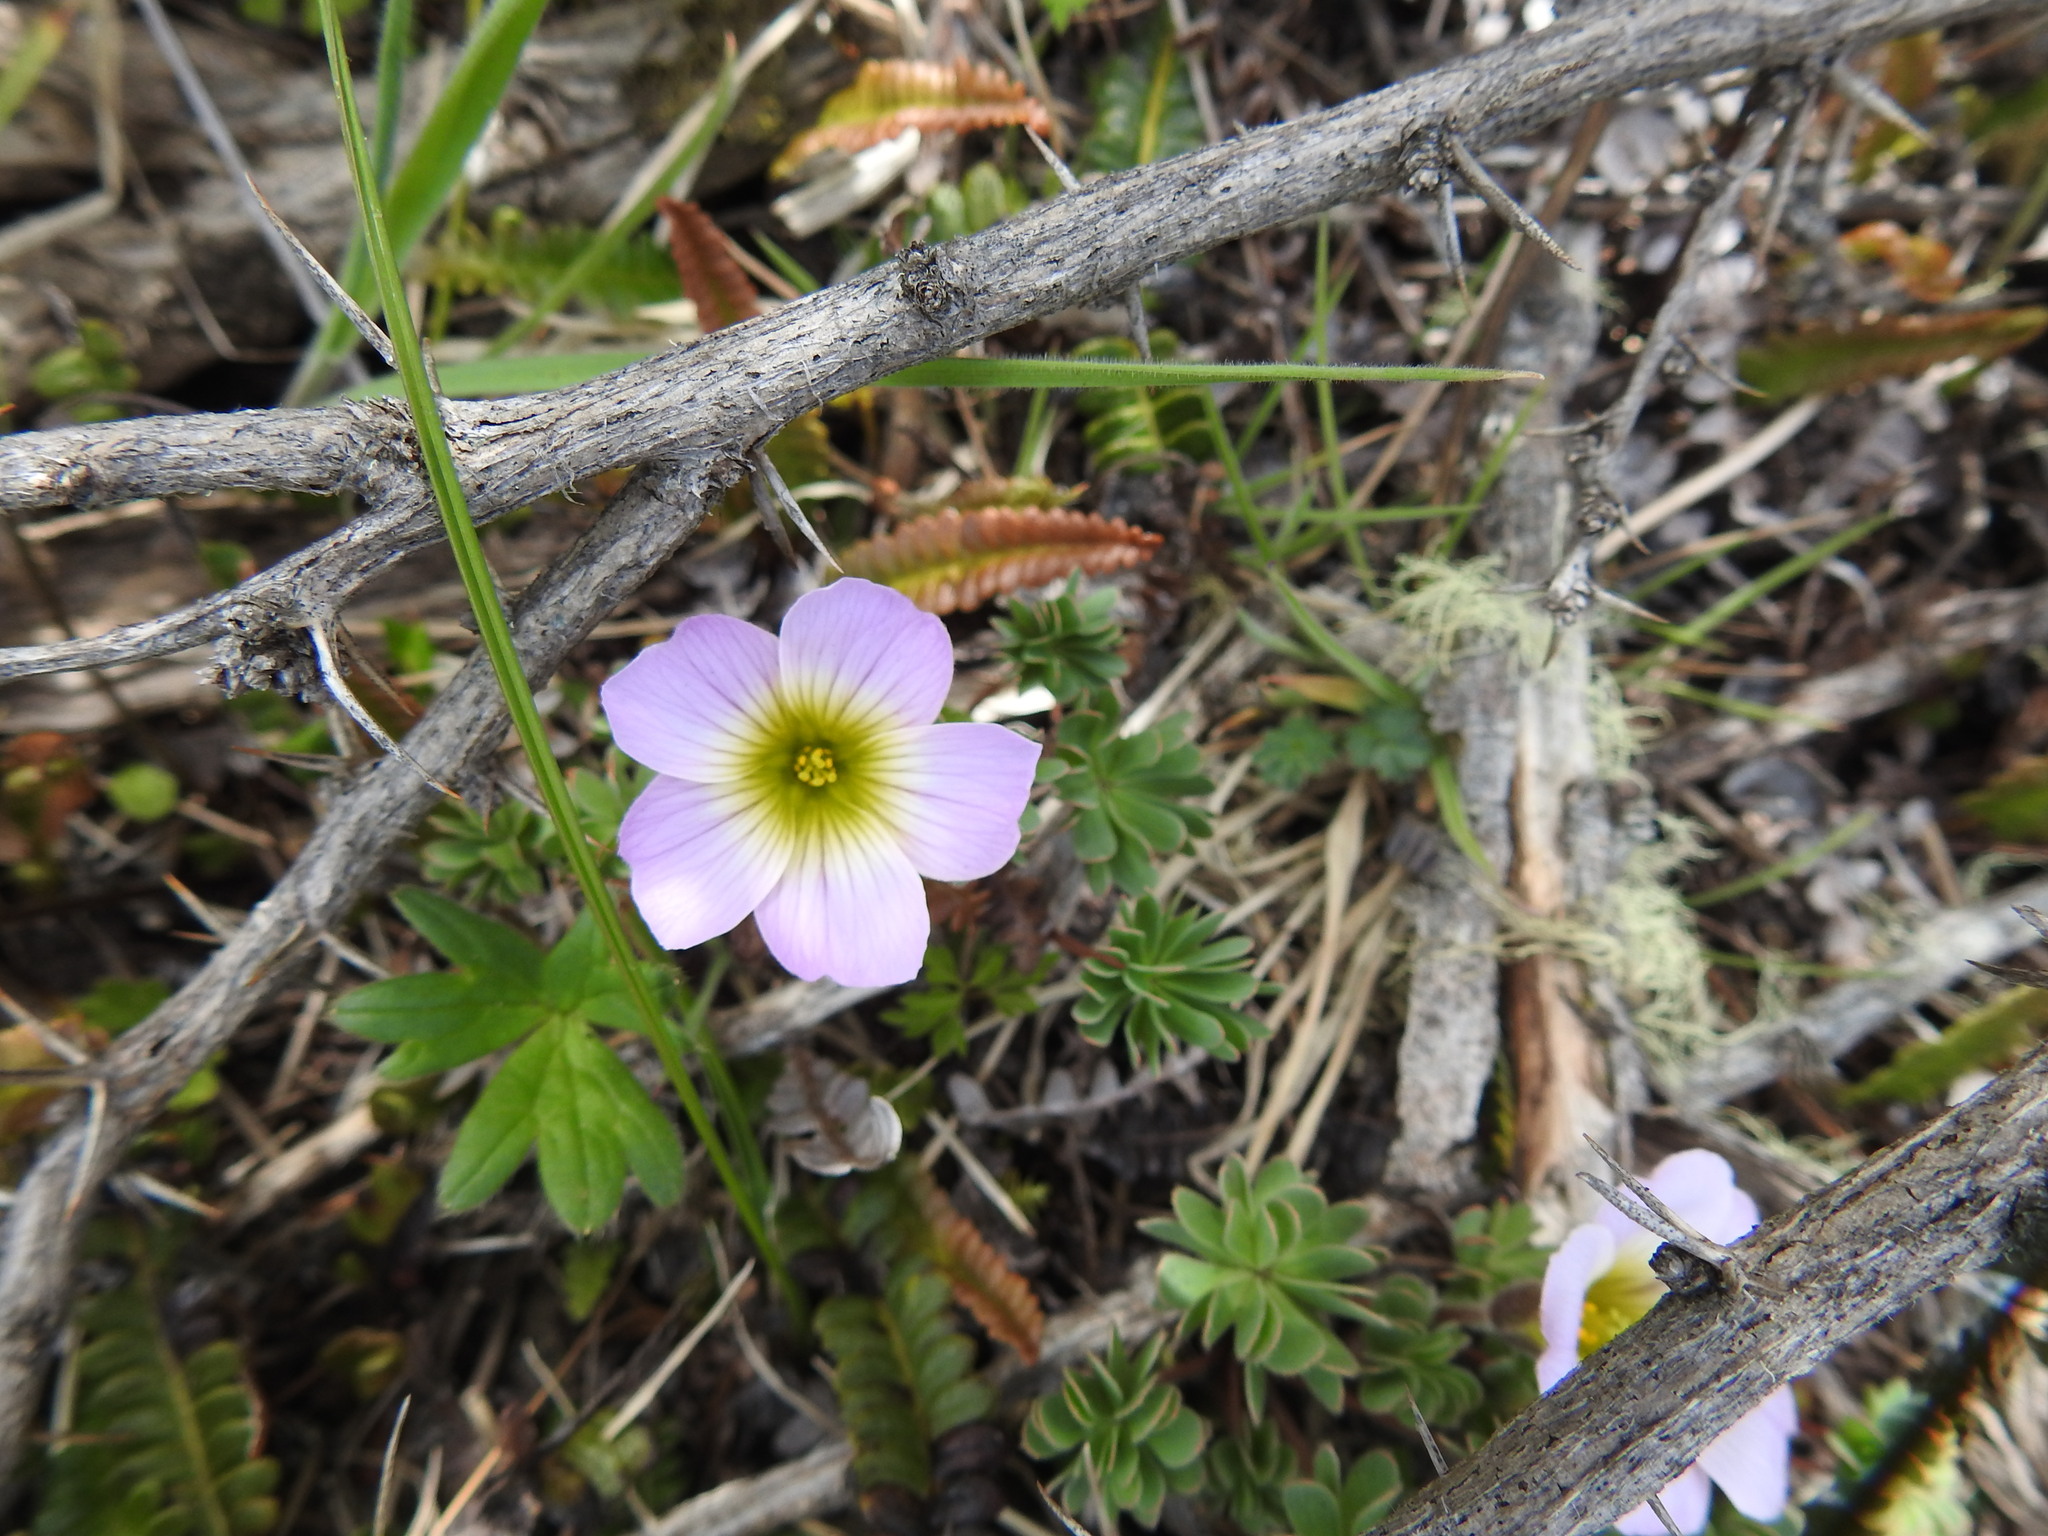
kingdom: Plantae
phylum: Tracheophyta
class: Magnoliopsida
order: Oxalidales
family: Oxalidaceae
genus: Oxalis
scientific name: Oxalis enneaphylla
